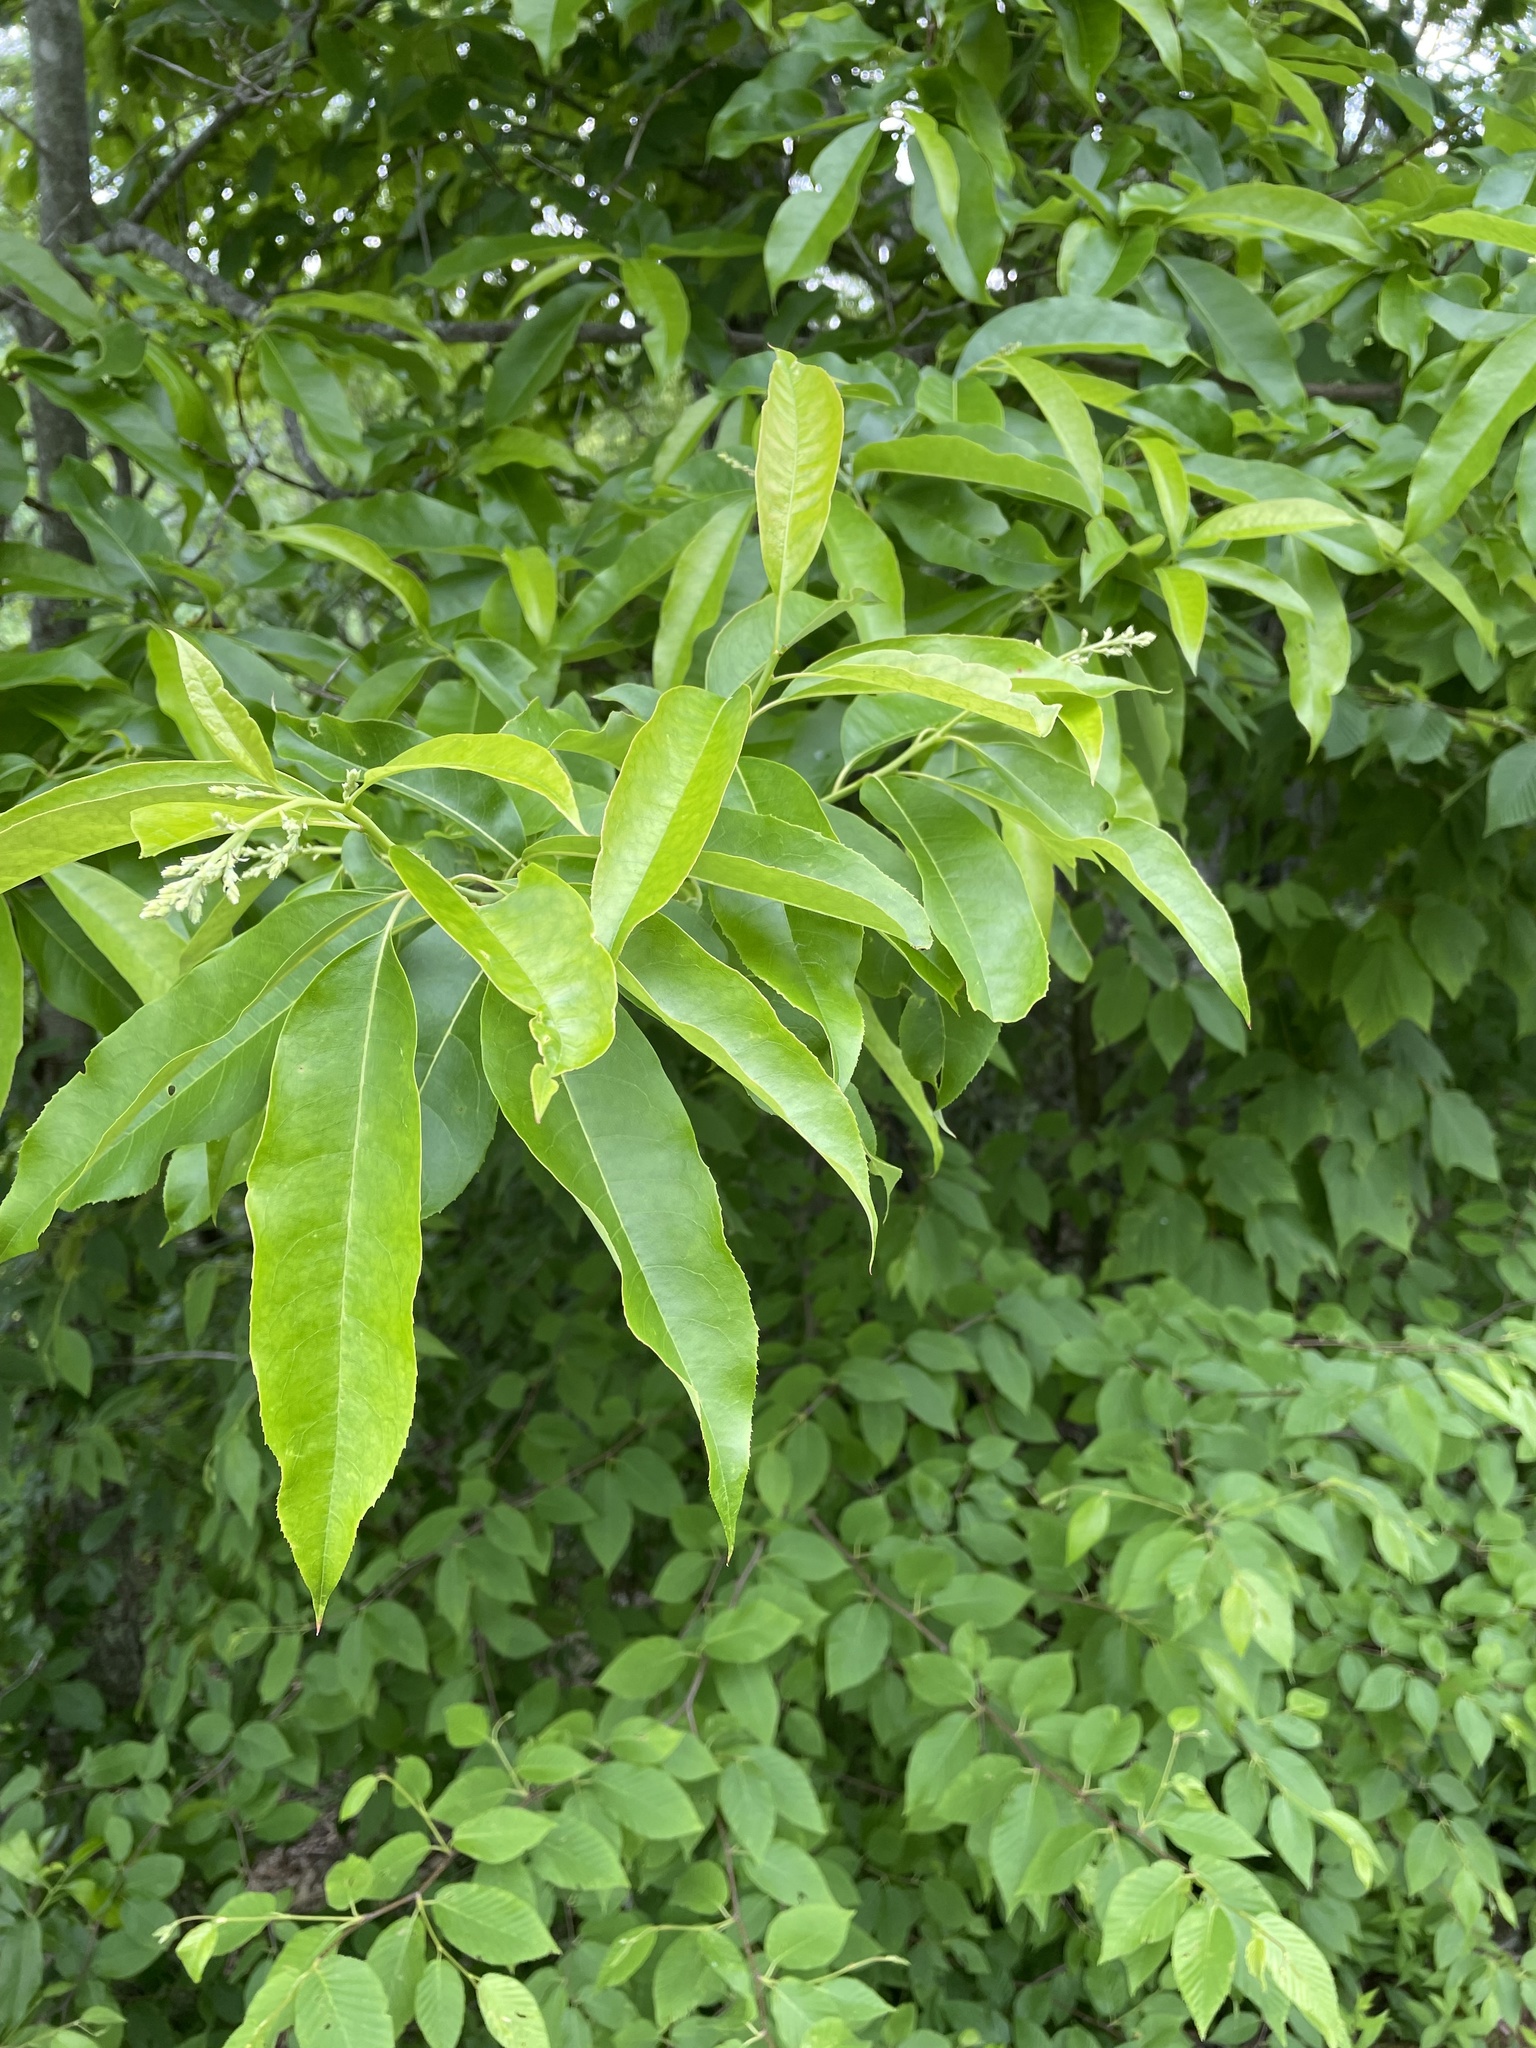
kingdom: Plantae
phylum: Tracheophyta
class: Magnoliopsida
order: Ericales
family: Ericaceae
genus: Oxydendrum
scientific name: Oxydendrum arboreum
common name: Sourwood
